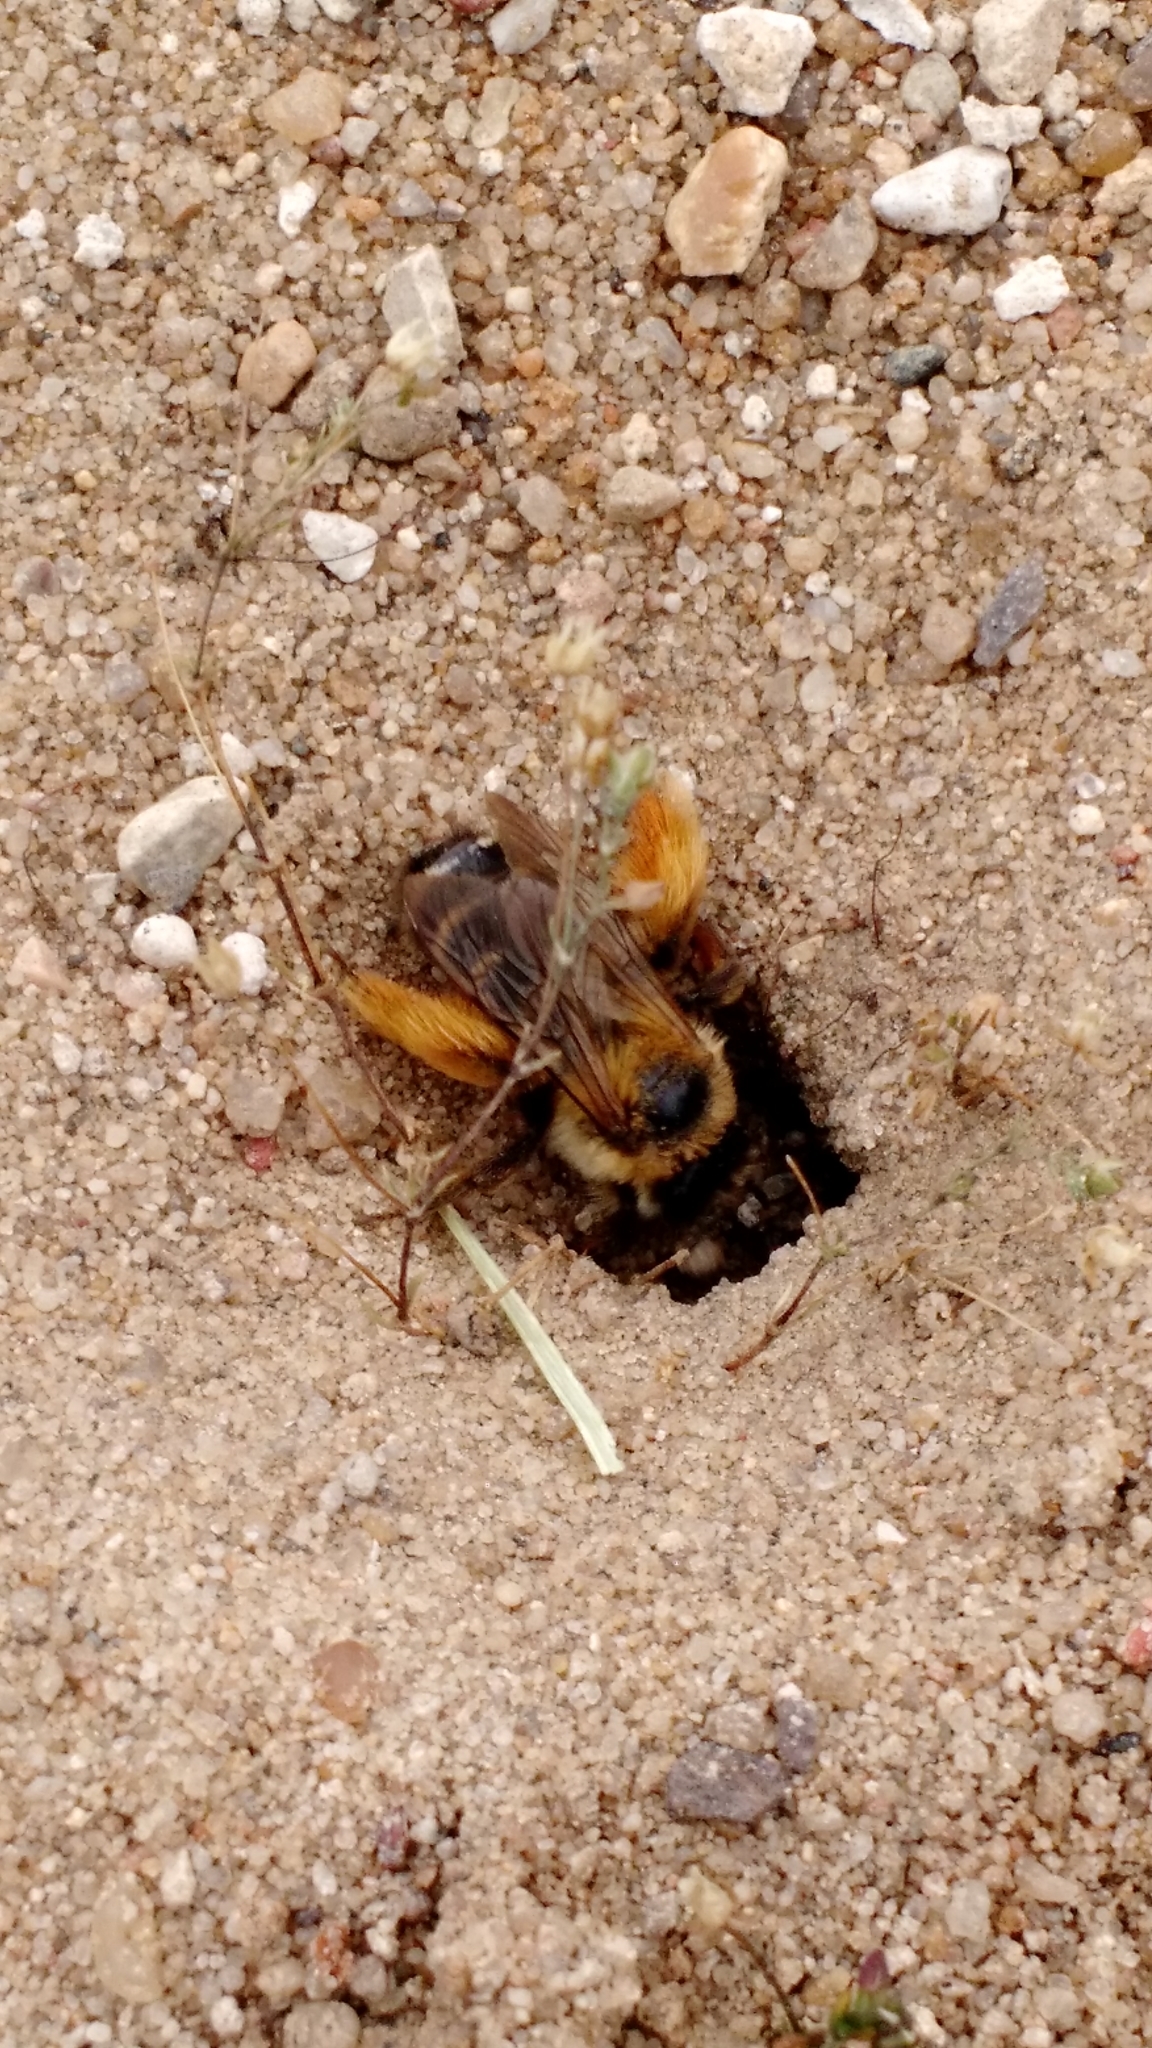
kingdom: Animalia
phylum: Arthropoda
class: Insecta
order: Hymenoptera
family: Melittidae
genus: Dasypoda
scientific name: Dasypoda hirtipes
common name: Pantaloon bee
